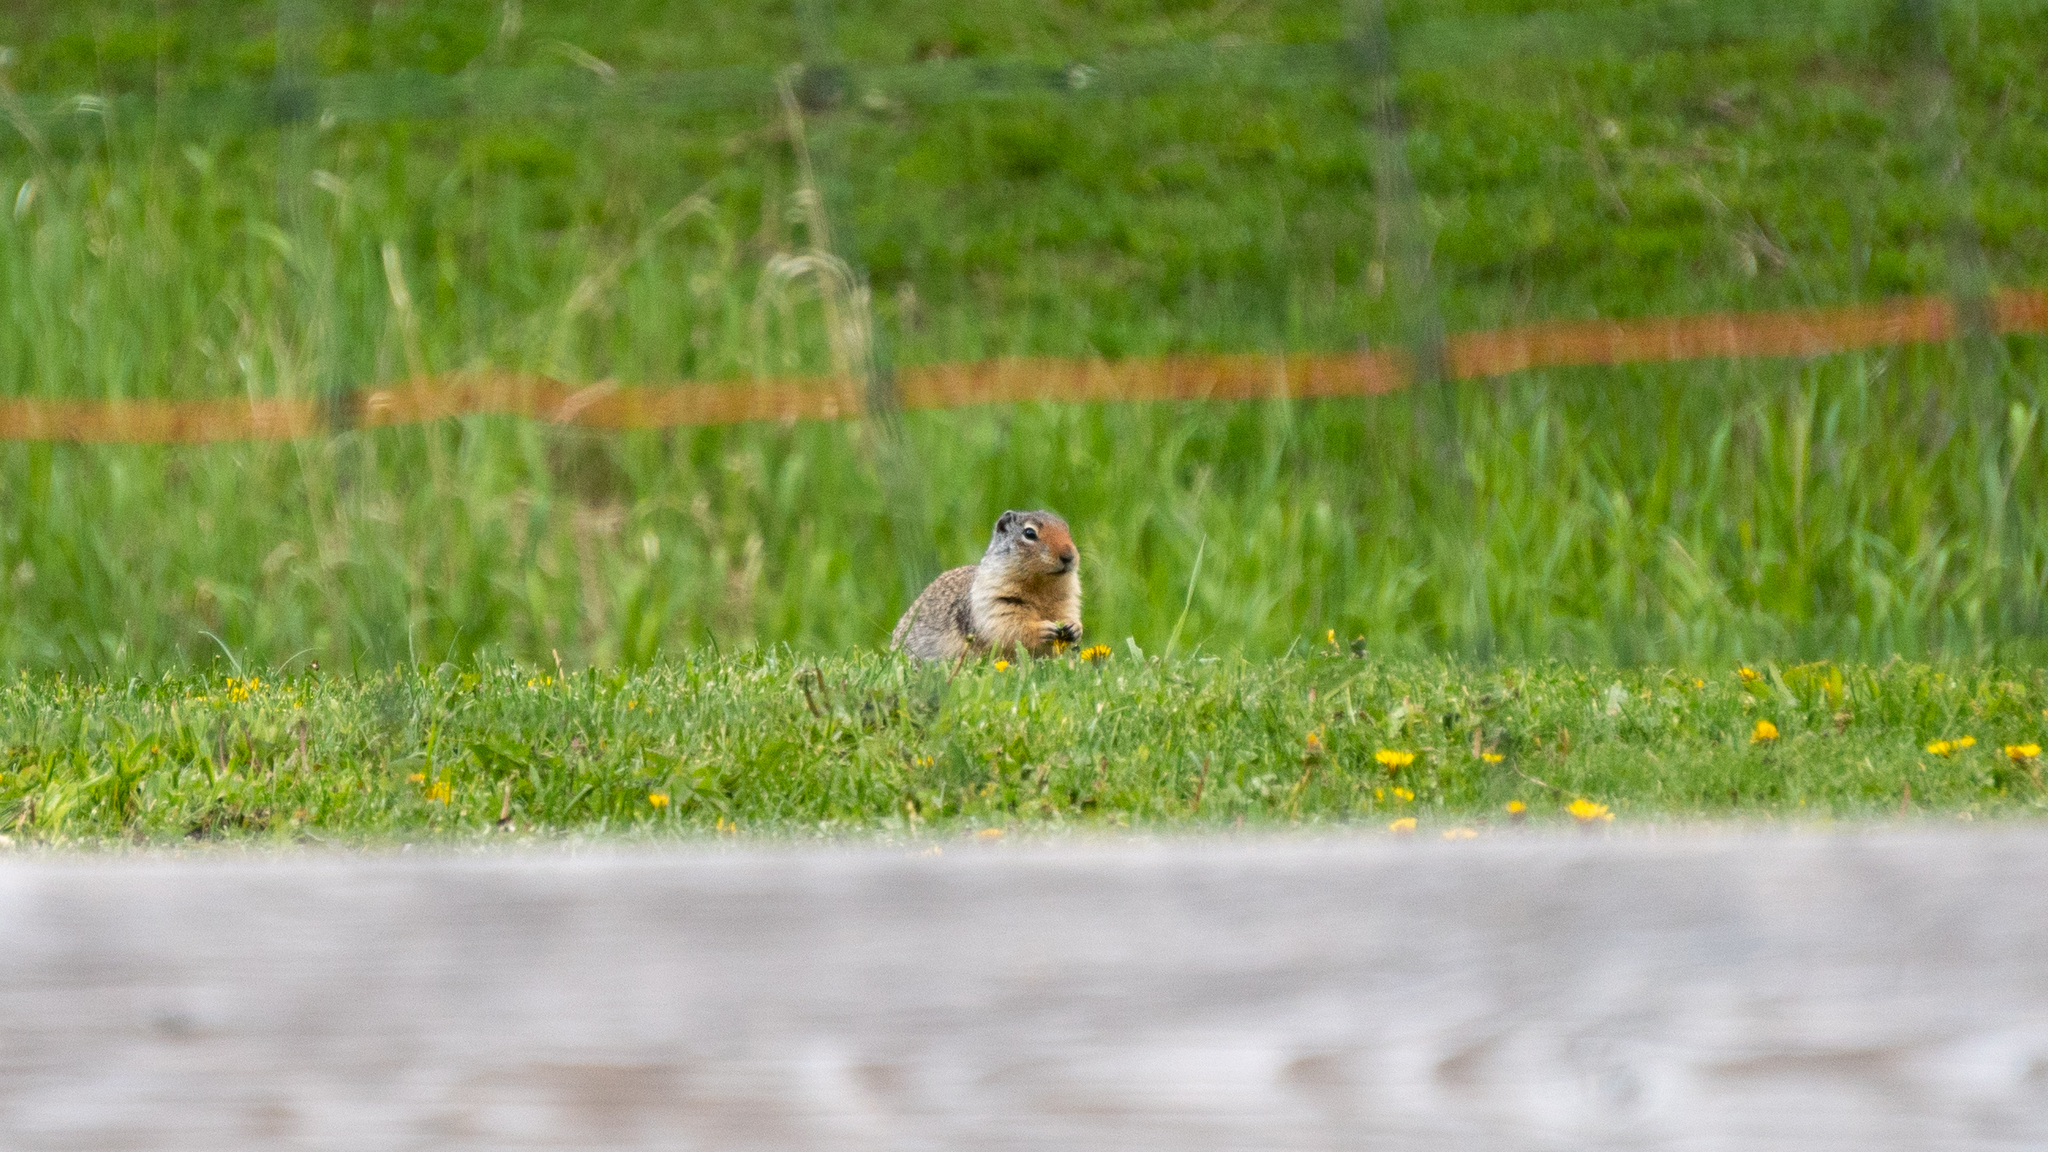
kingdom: Animalia
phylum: Chordata
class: Mammalia
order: Rodentia
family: Sciuridae
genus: Urocitellus
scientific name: Urocitellus columbianus
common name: Columbian ground squirrel
